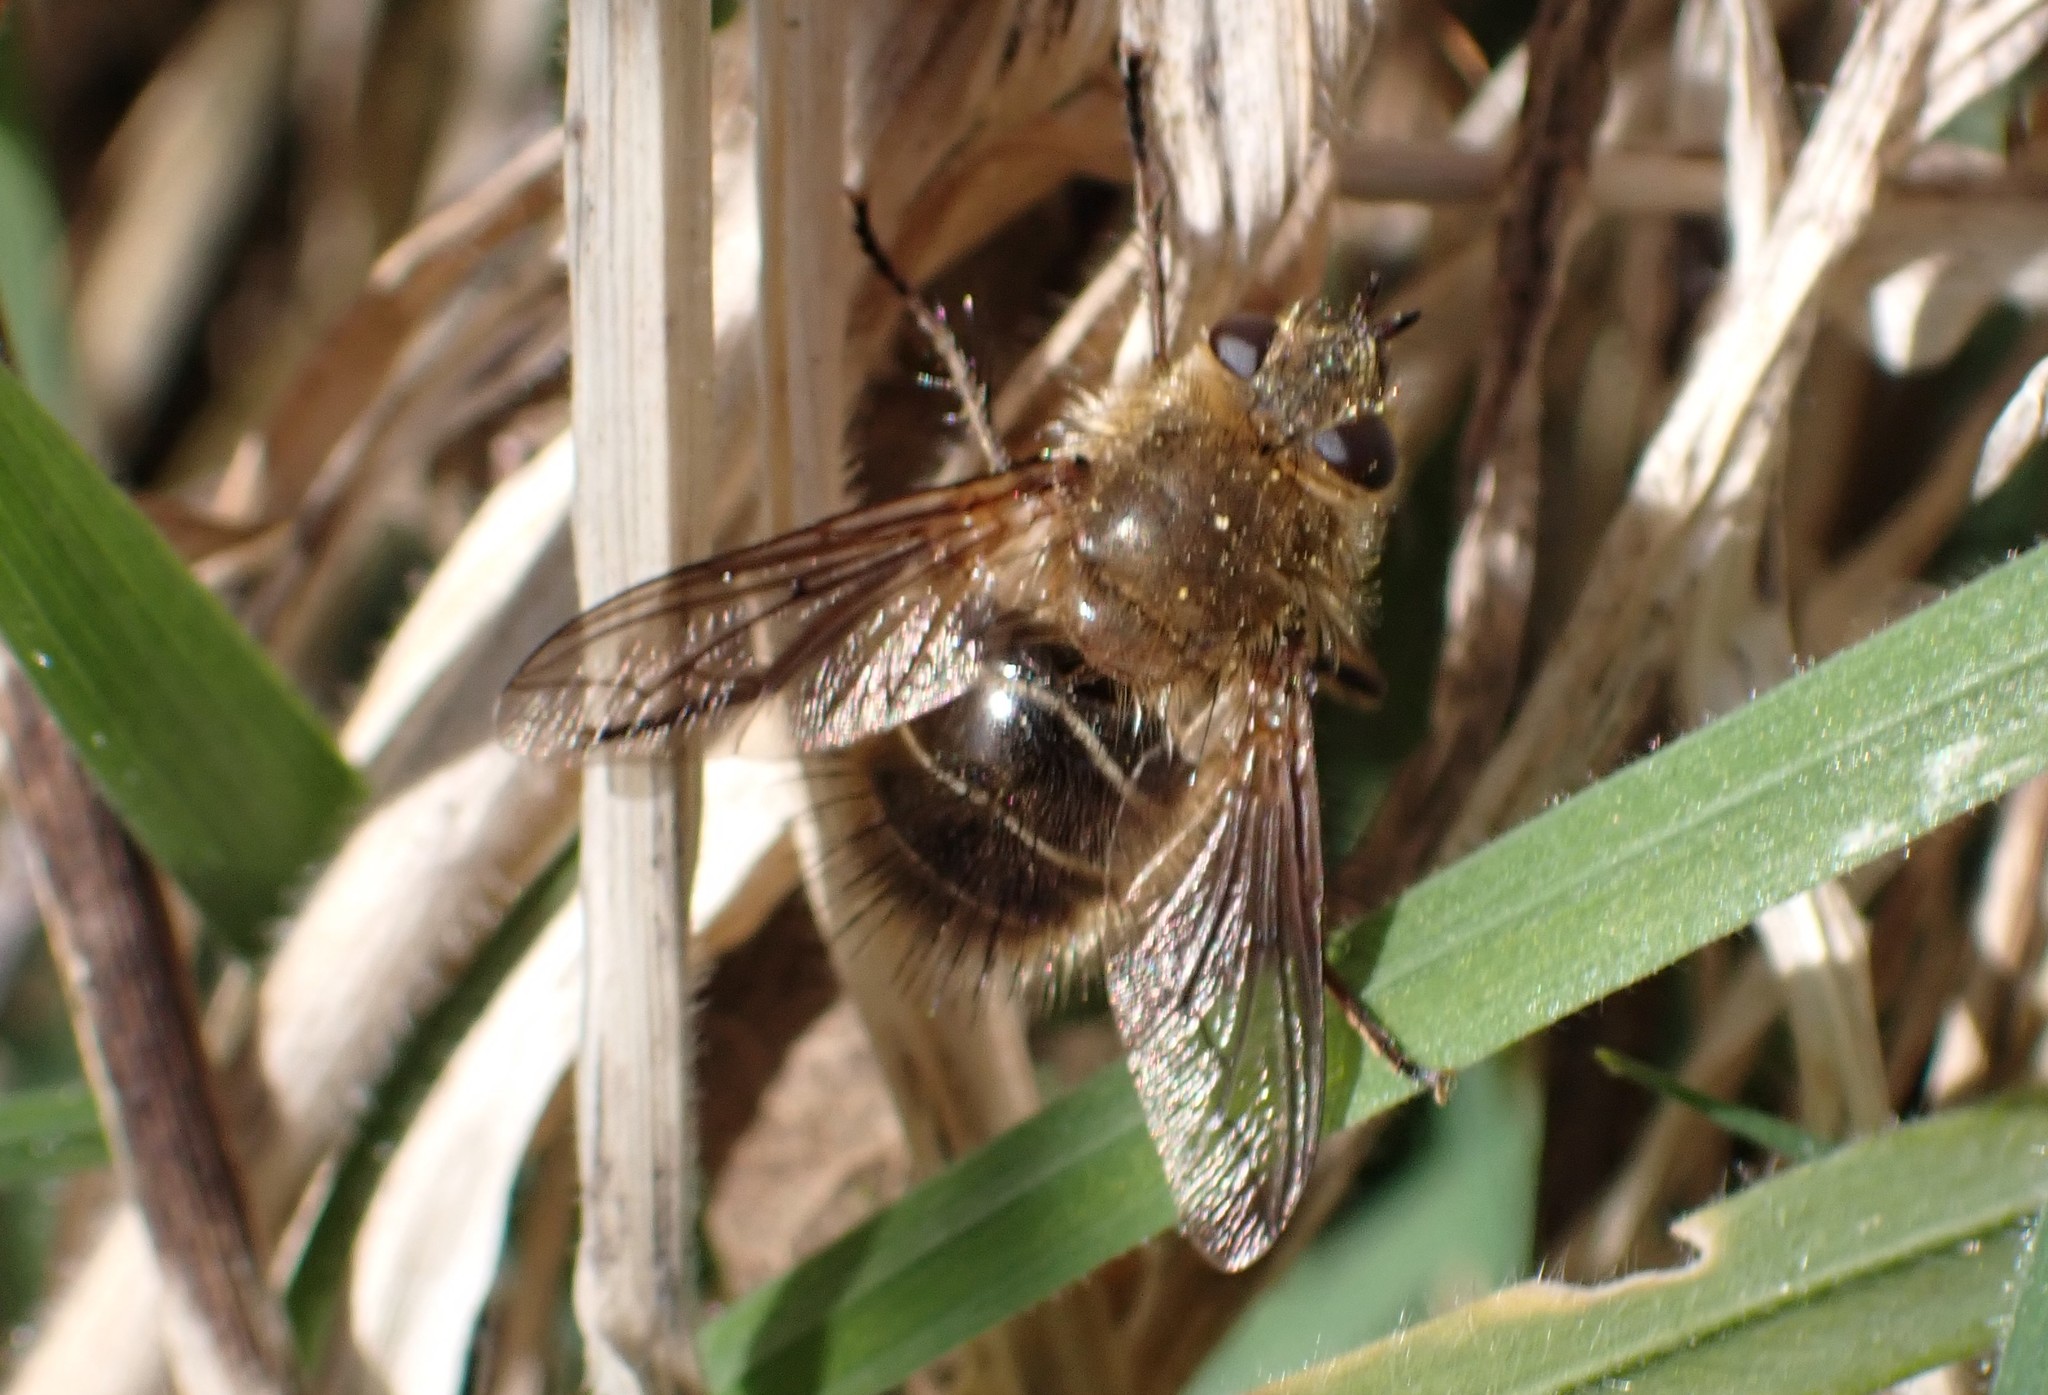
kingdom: Animalia
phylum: Arthropoda
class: Insecta
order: Diptera
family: Tachinidae
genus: Tachina
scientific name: Tachina ursina
